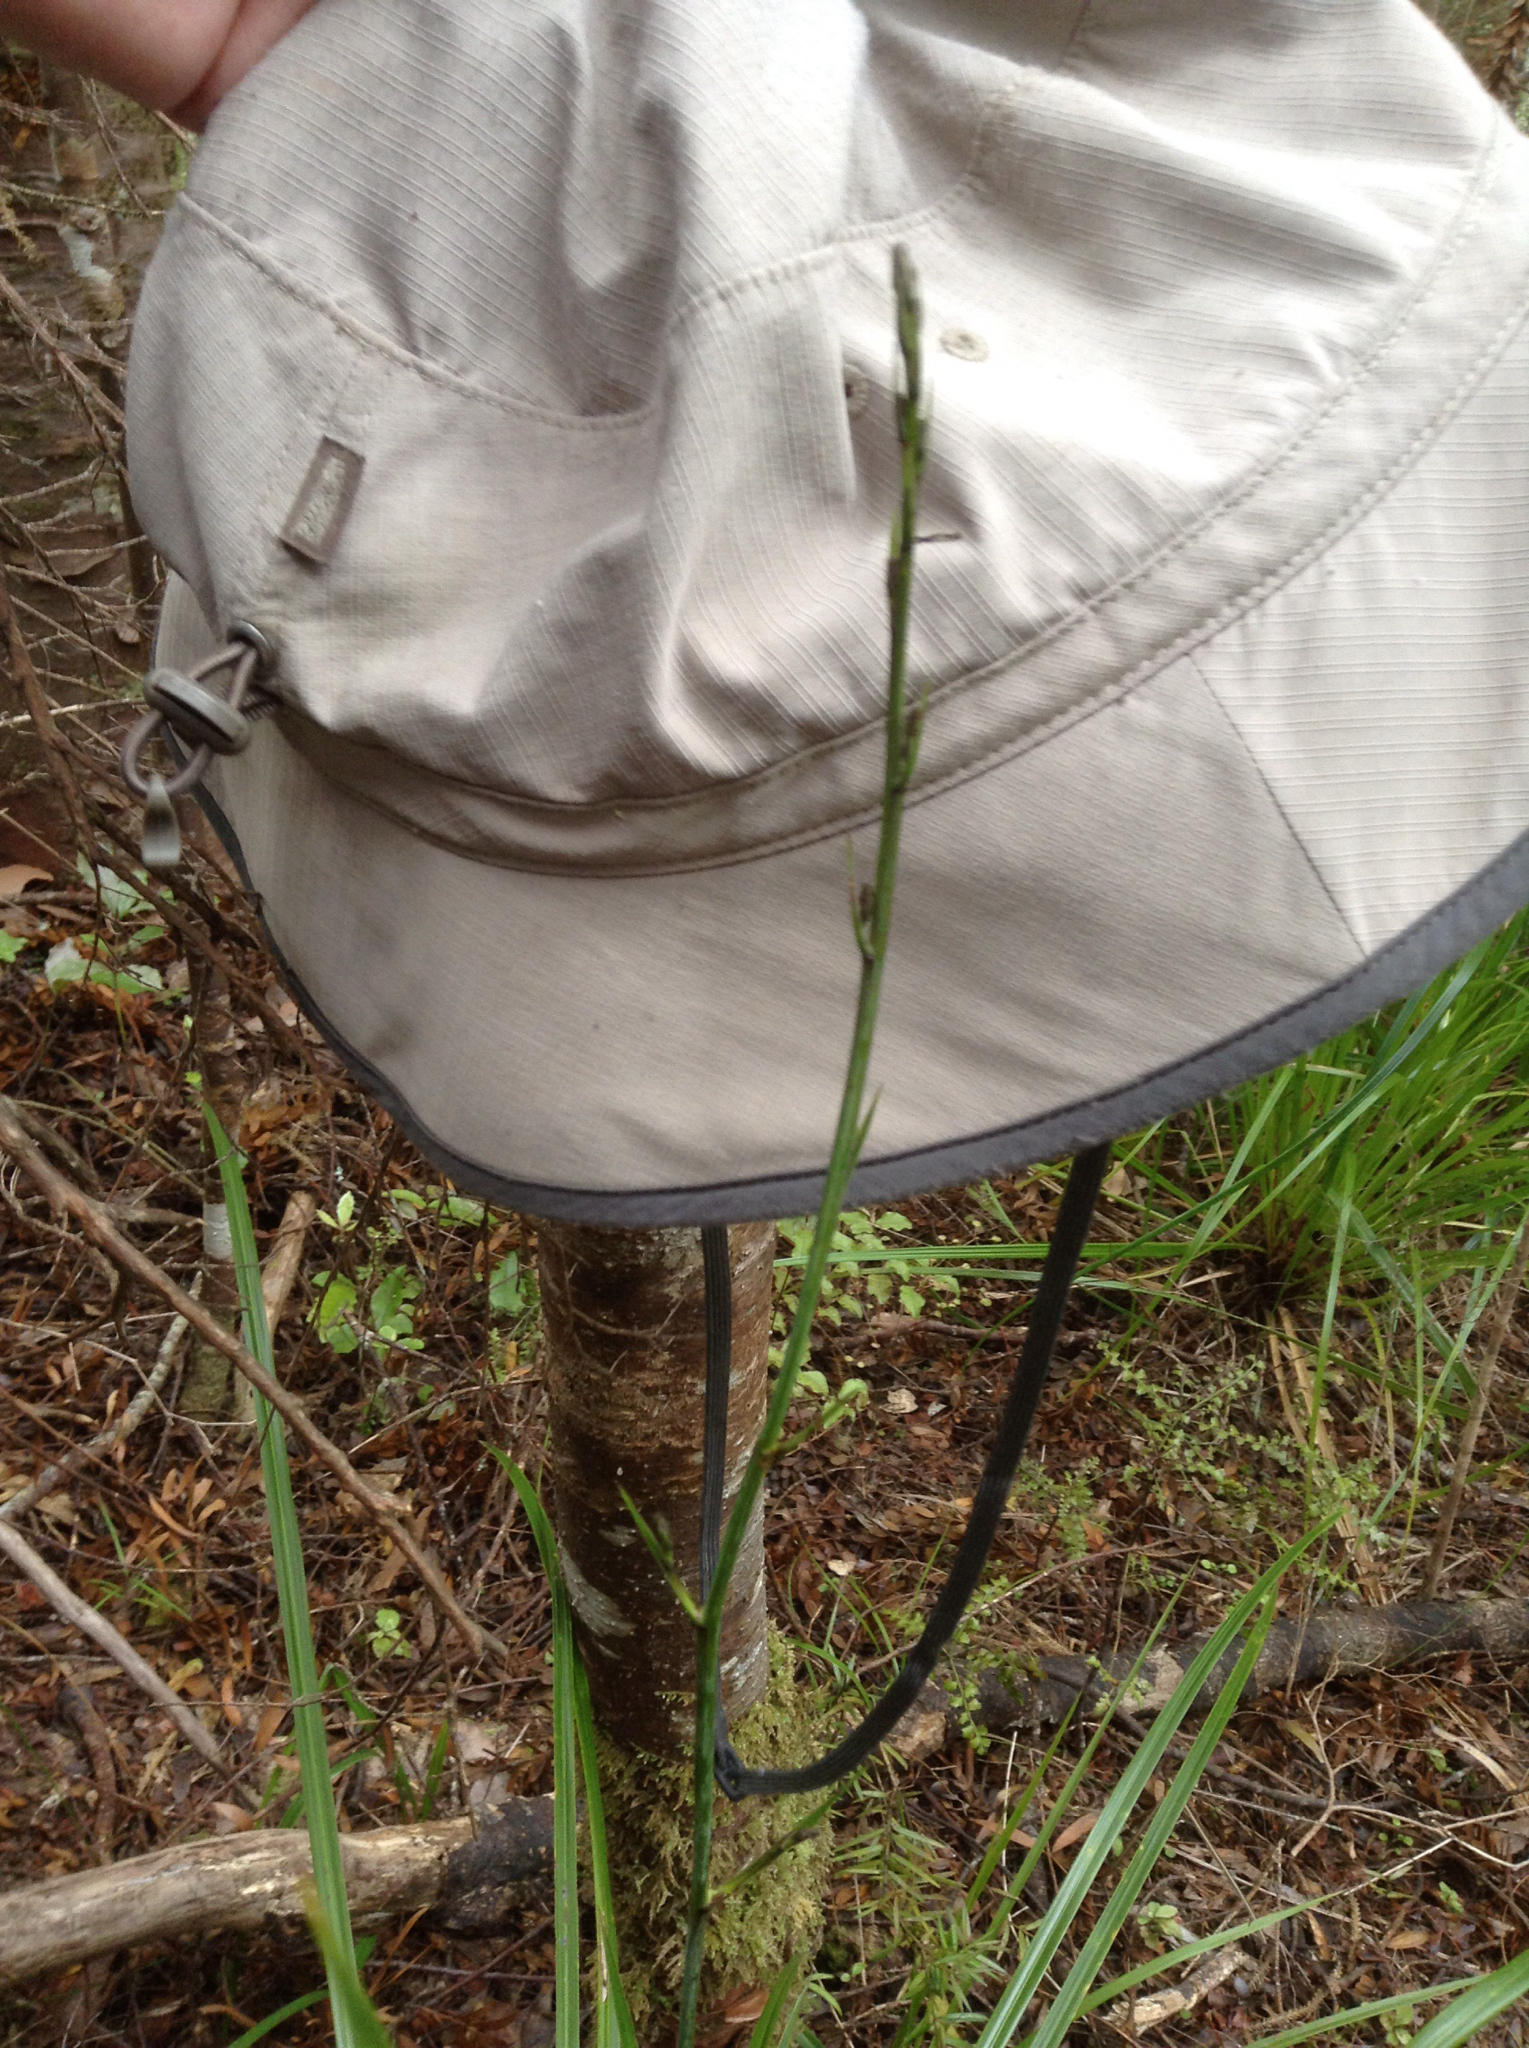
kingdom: Plantae
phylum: Tracheophyta
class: Liliopsida
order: Asparagales
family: Asparagaceae
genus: Cordyline
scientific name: Cordyline pumilio
